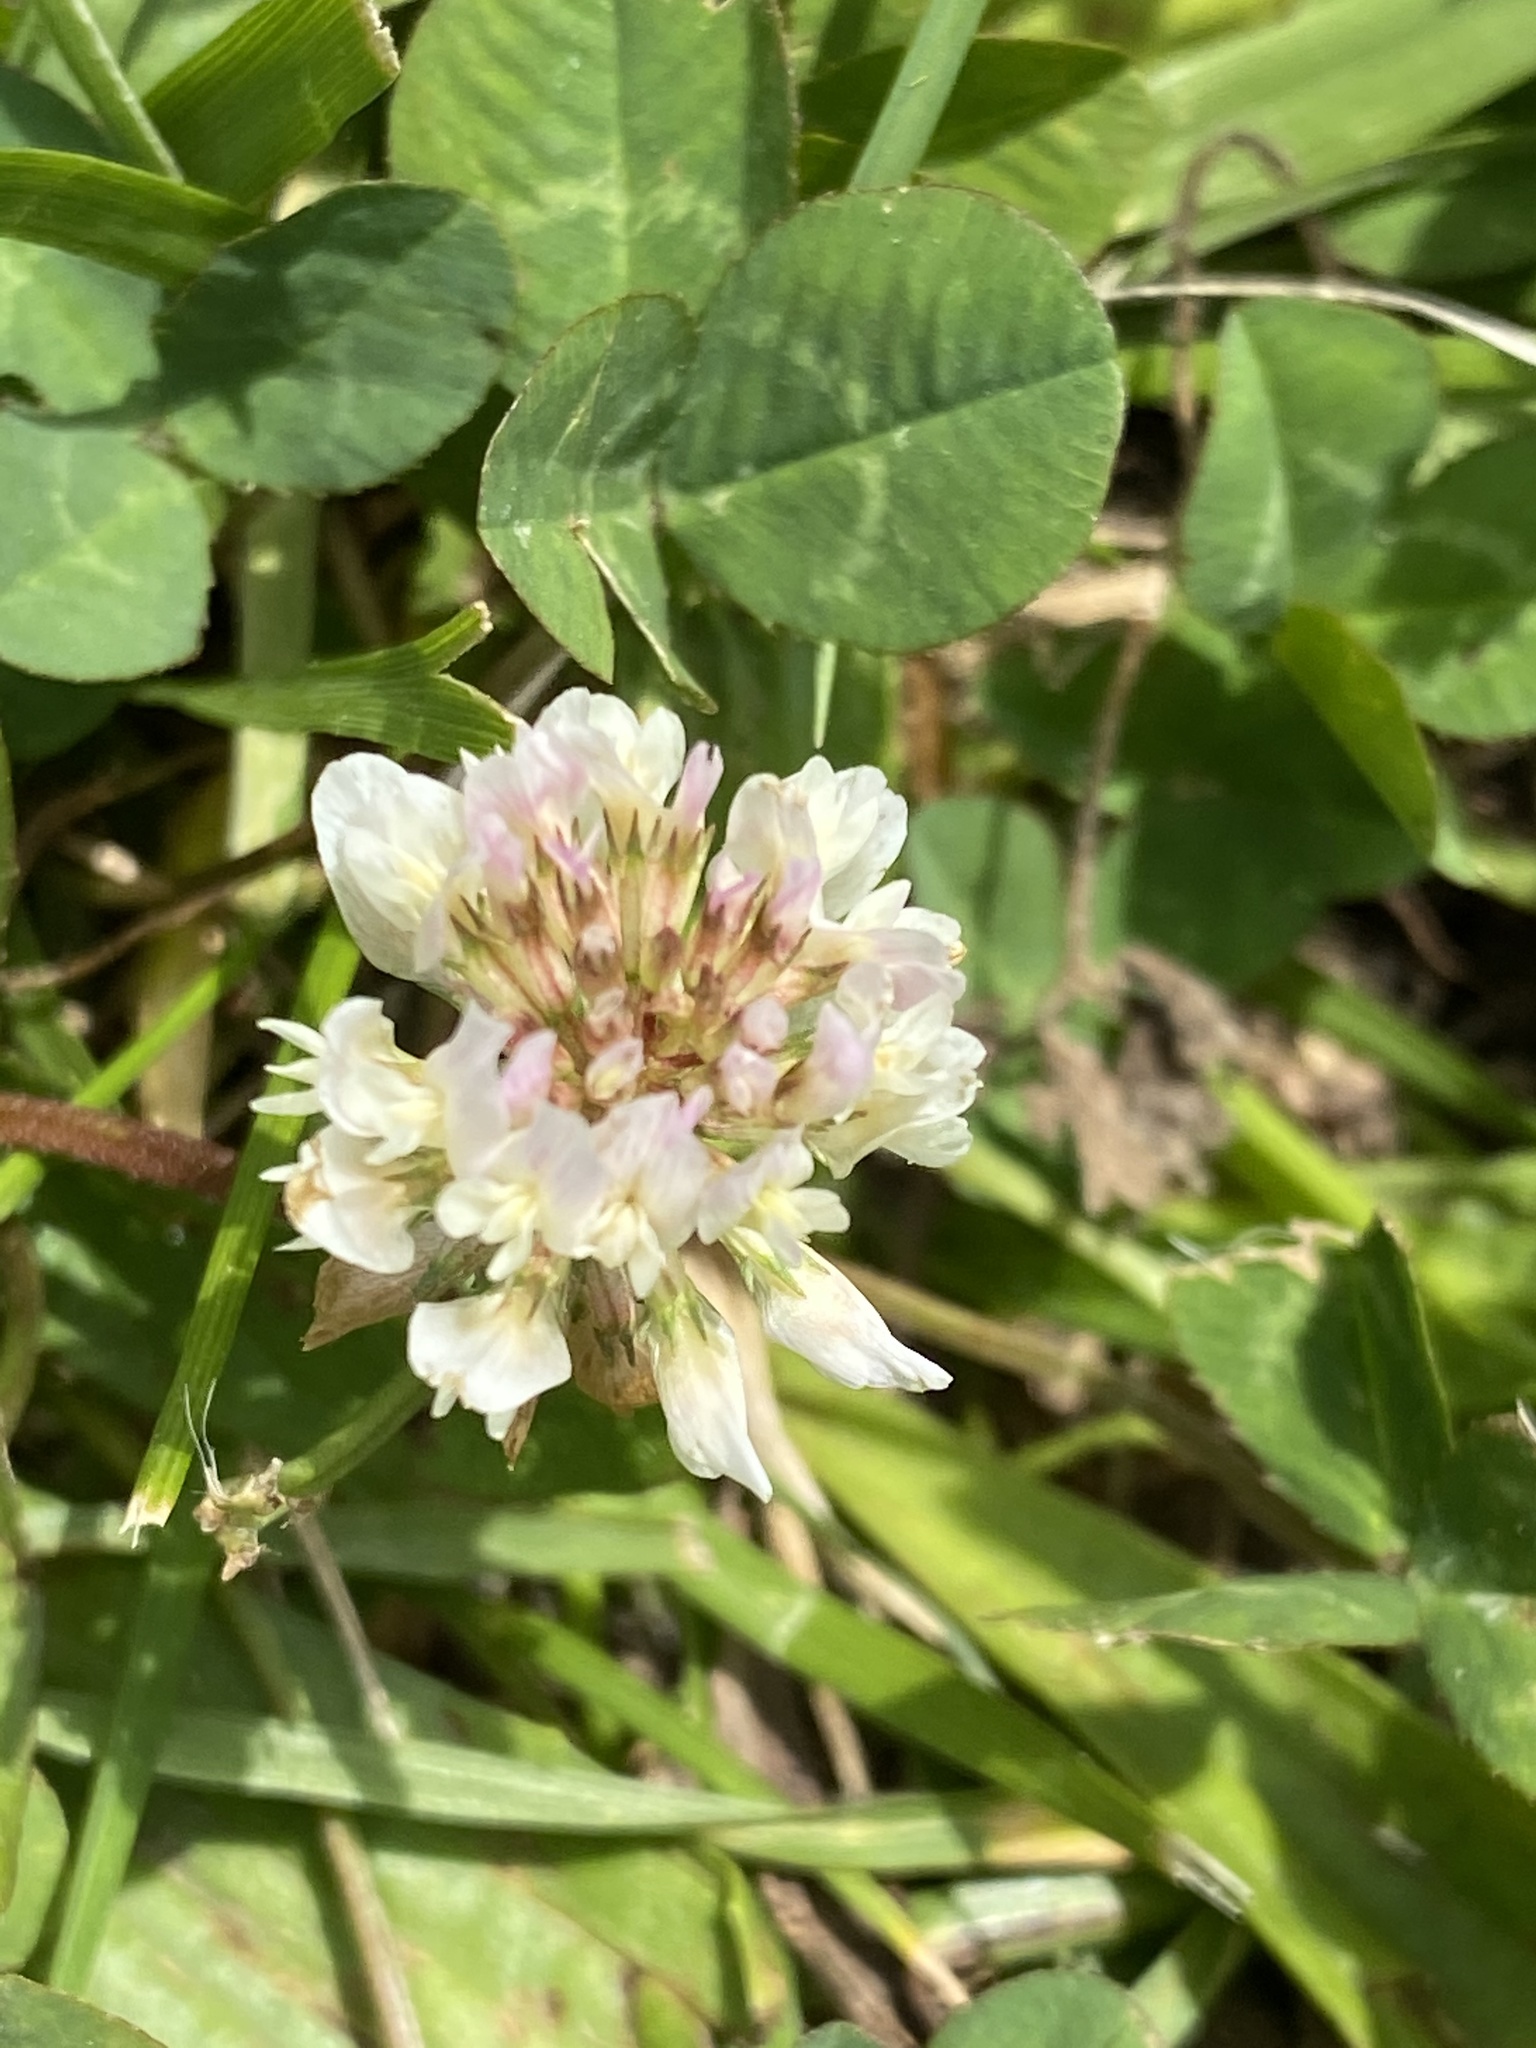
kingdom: Plantae
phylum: Tracheophyta
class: Magnoliopsida
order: Fabales
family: Fabaceae
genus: Trifolium
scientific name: Trifolium repens
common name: White clover
